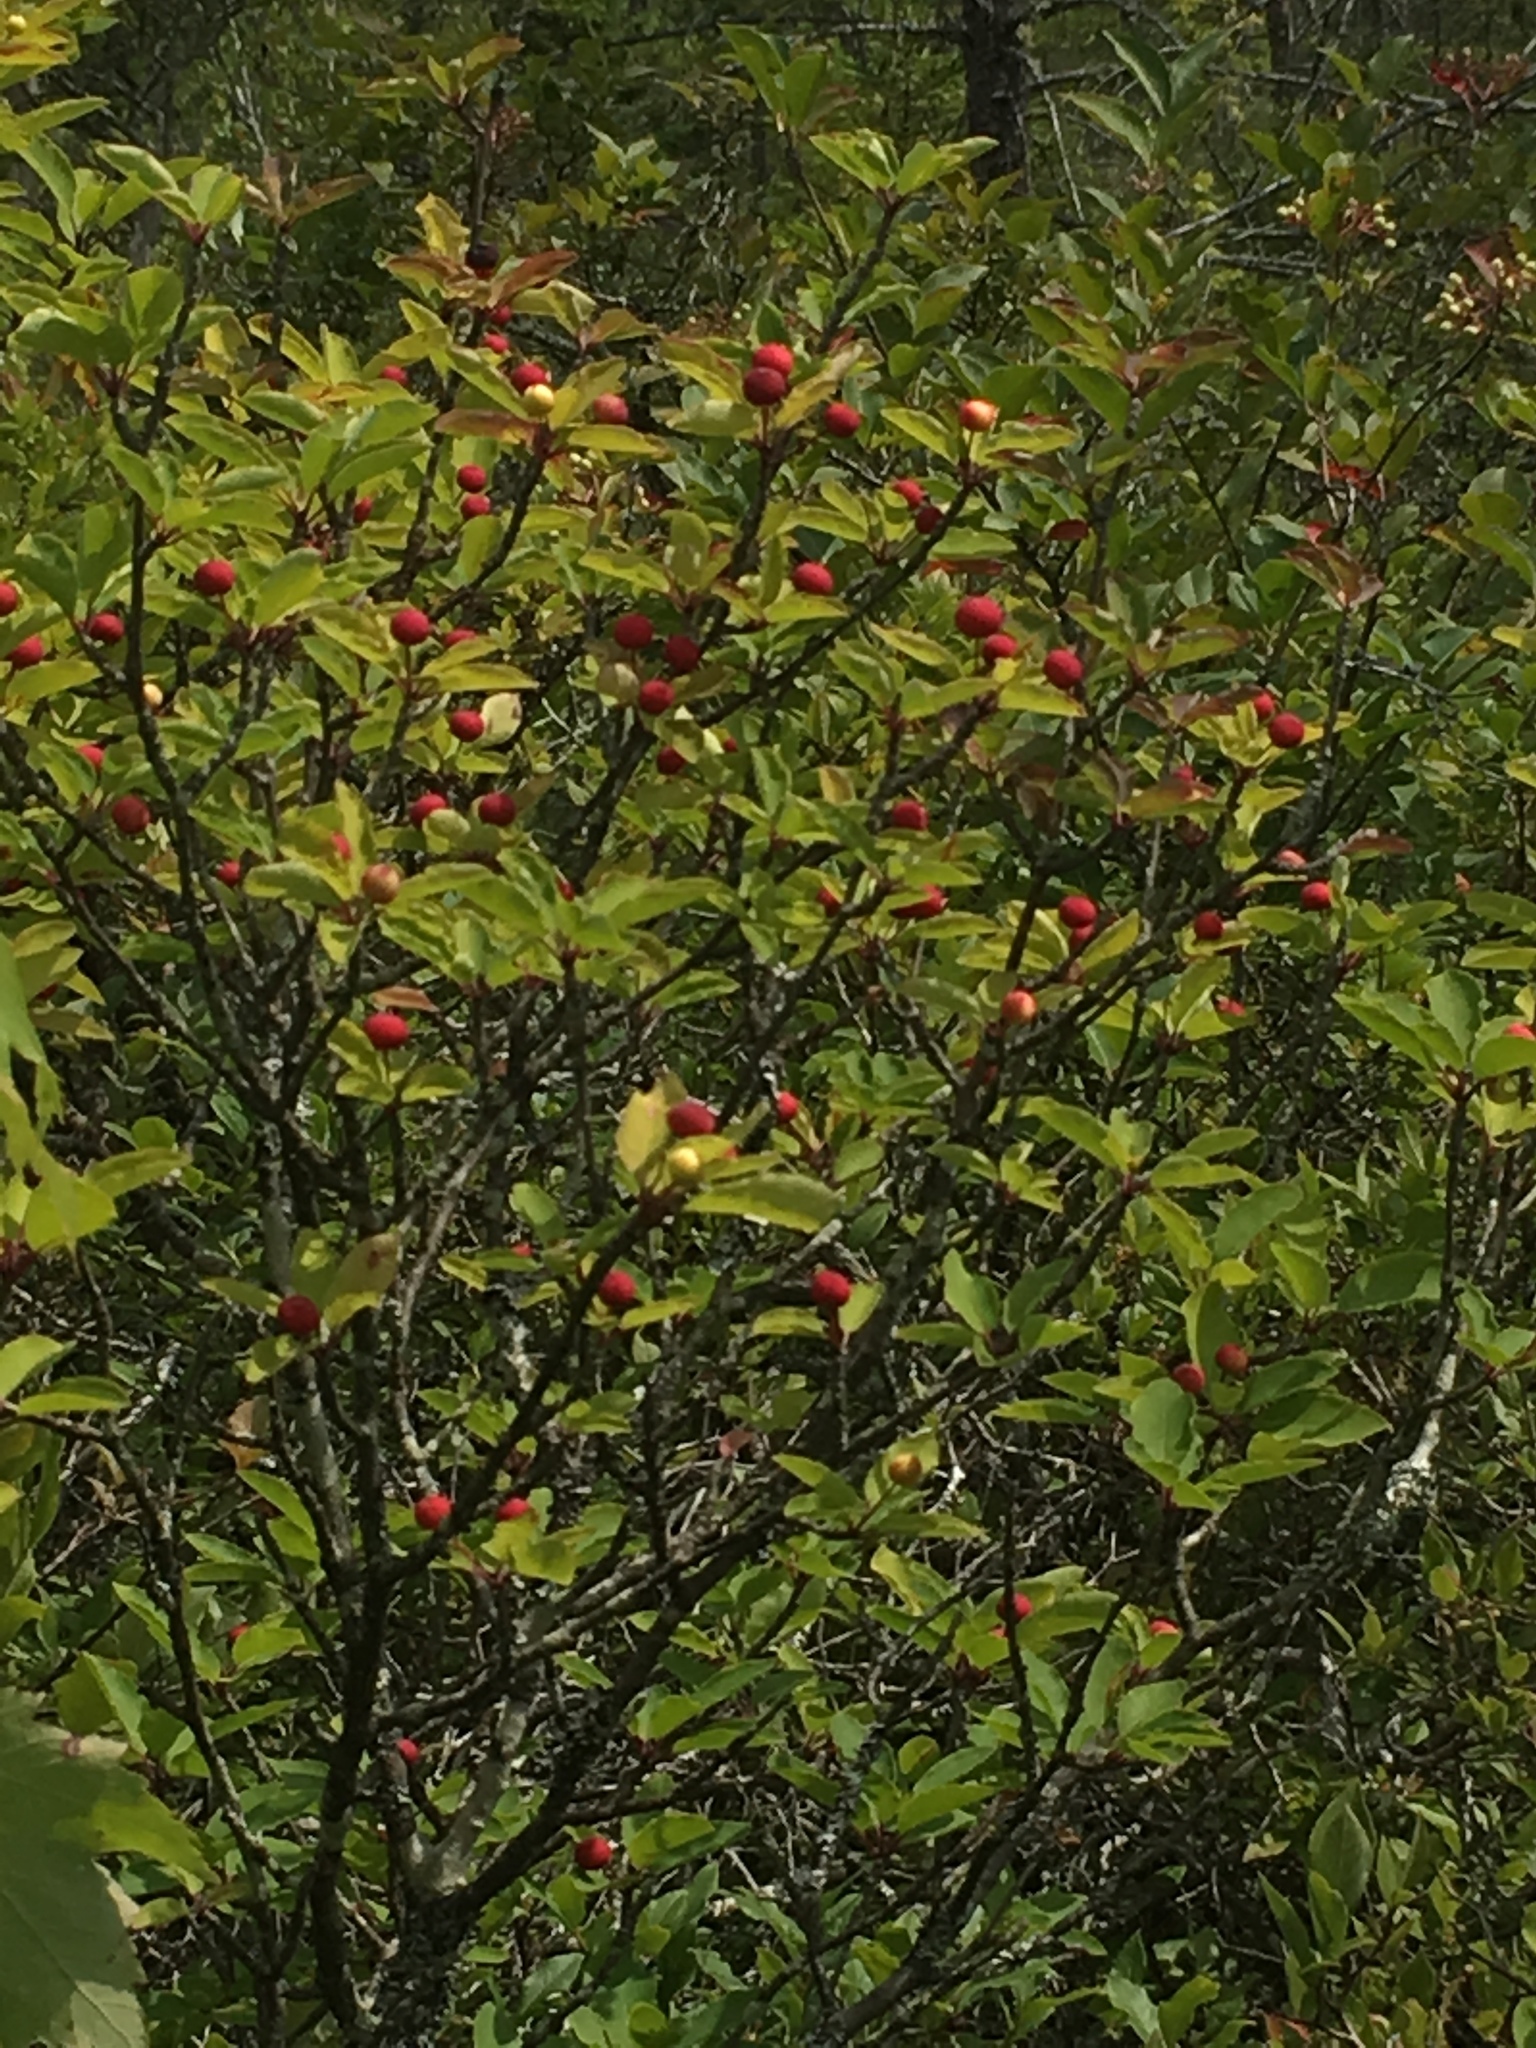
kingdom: Plantae
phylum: Tracheophyta
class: Magnoliopsida
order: Aquifoliales
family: Aquifoliaceae
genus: Ilex
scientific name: Ilex mucronata
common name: Catberry
